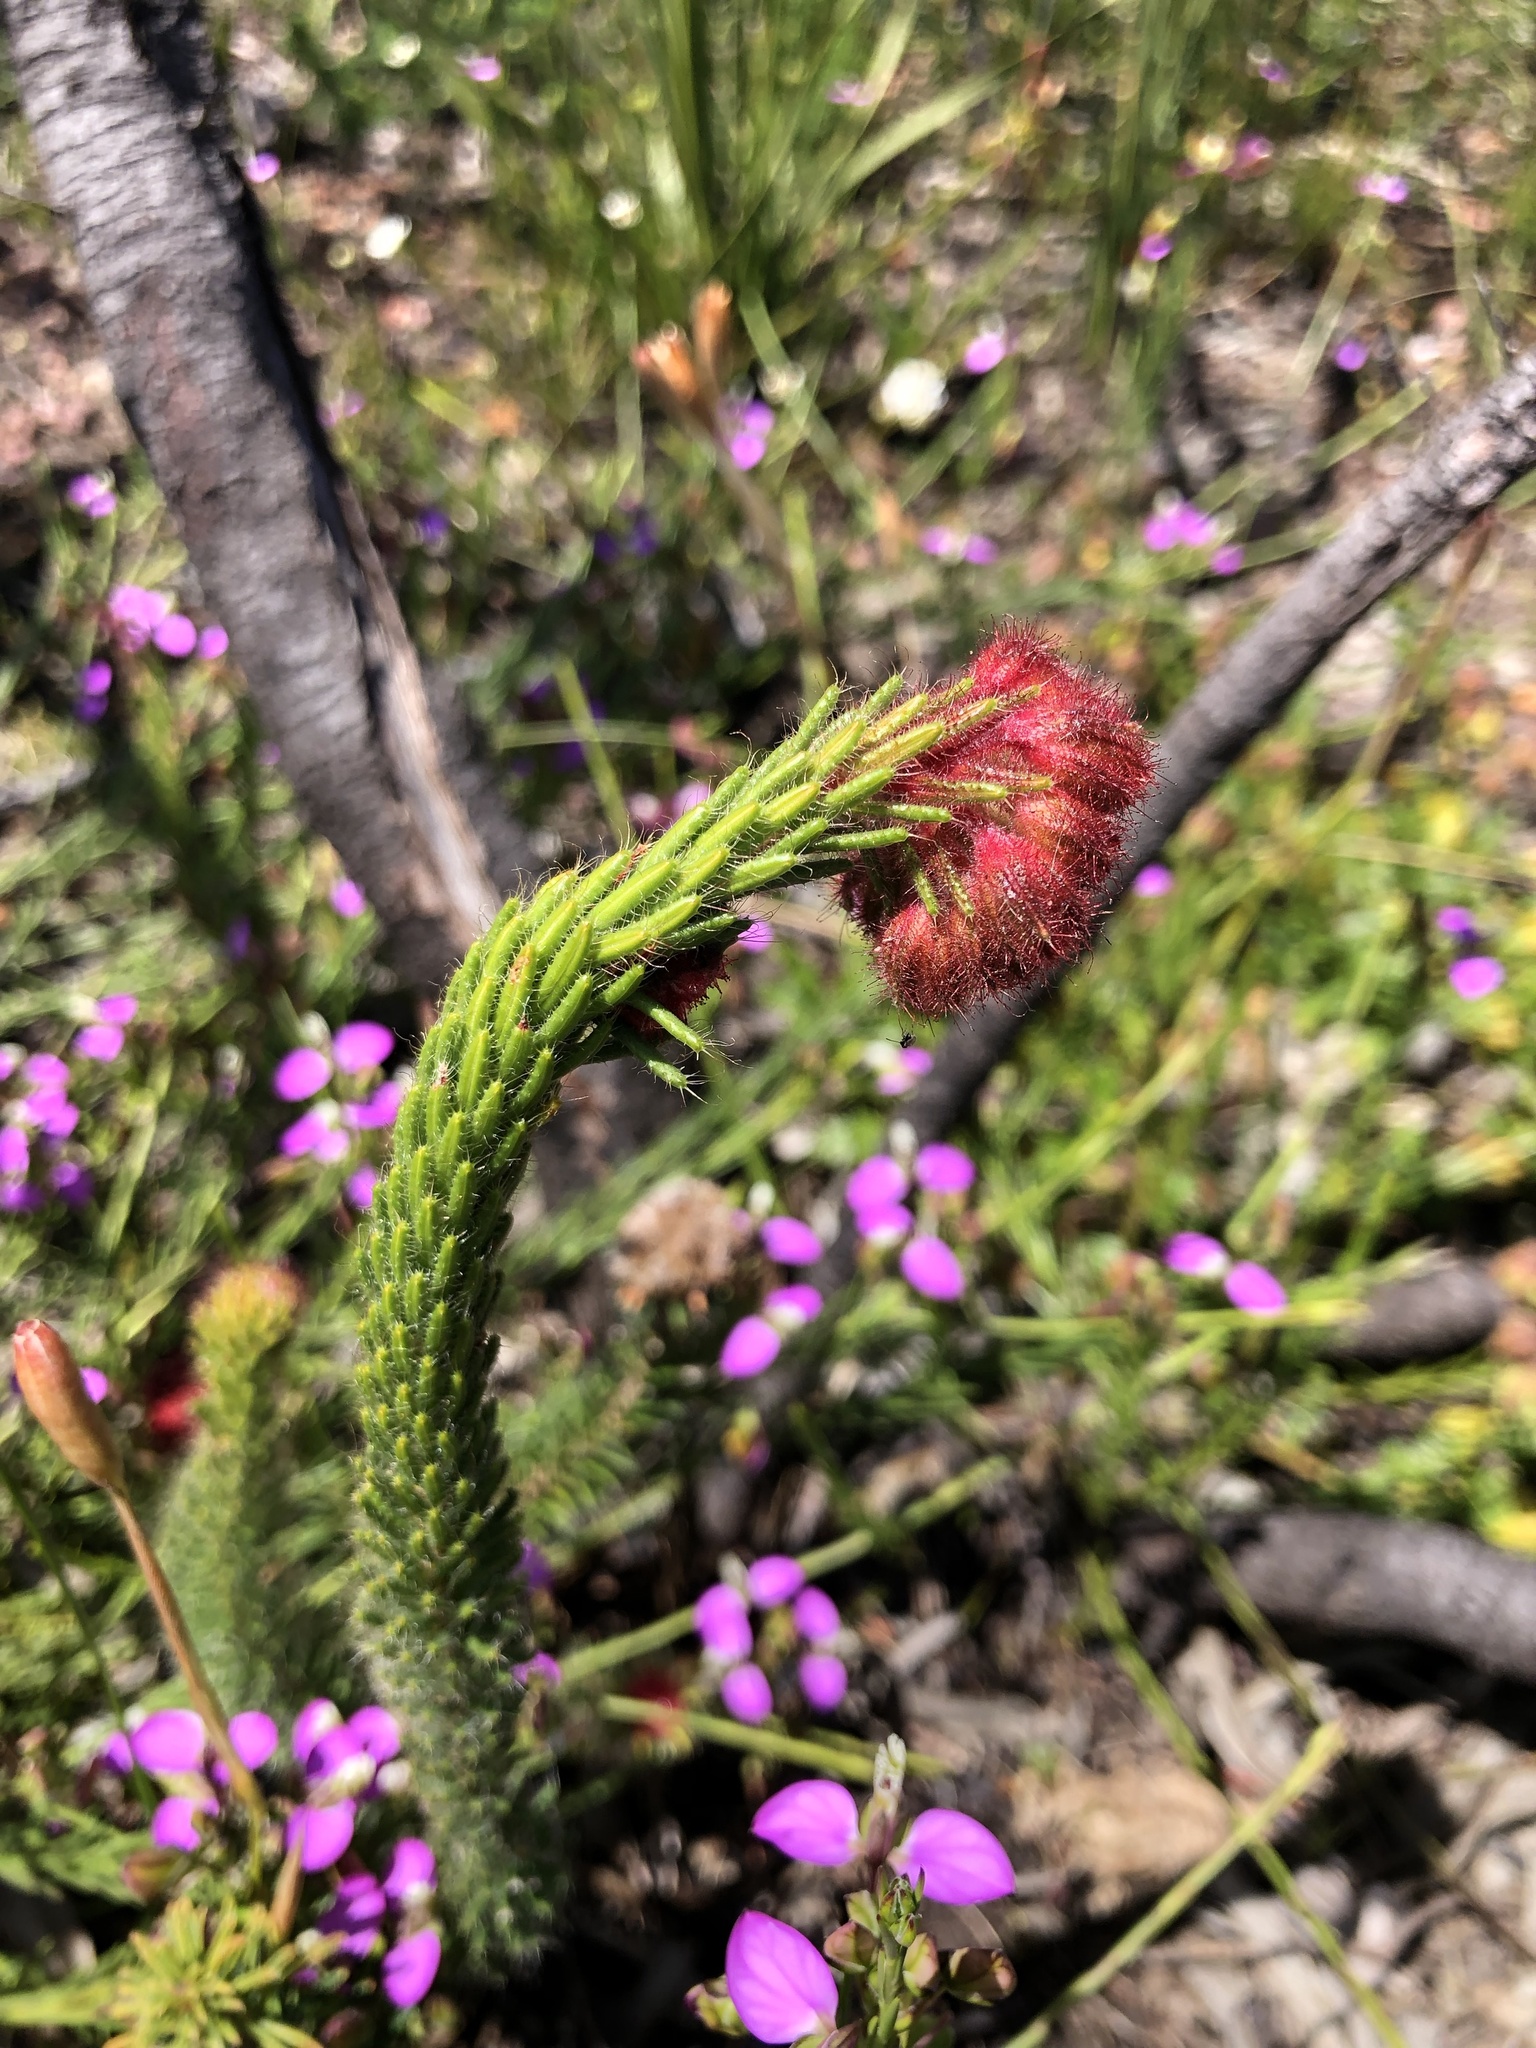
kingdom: Plantae
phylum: Tracheophyta
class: Magnoliopsida
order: Ericales
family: Ericaceae
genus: Erica
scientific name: Erica cerinthoides
